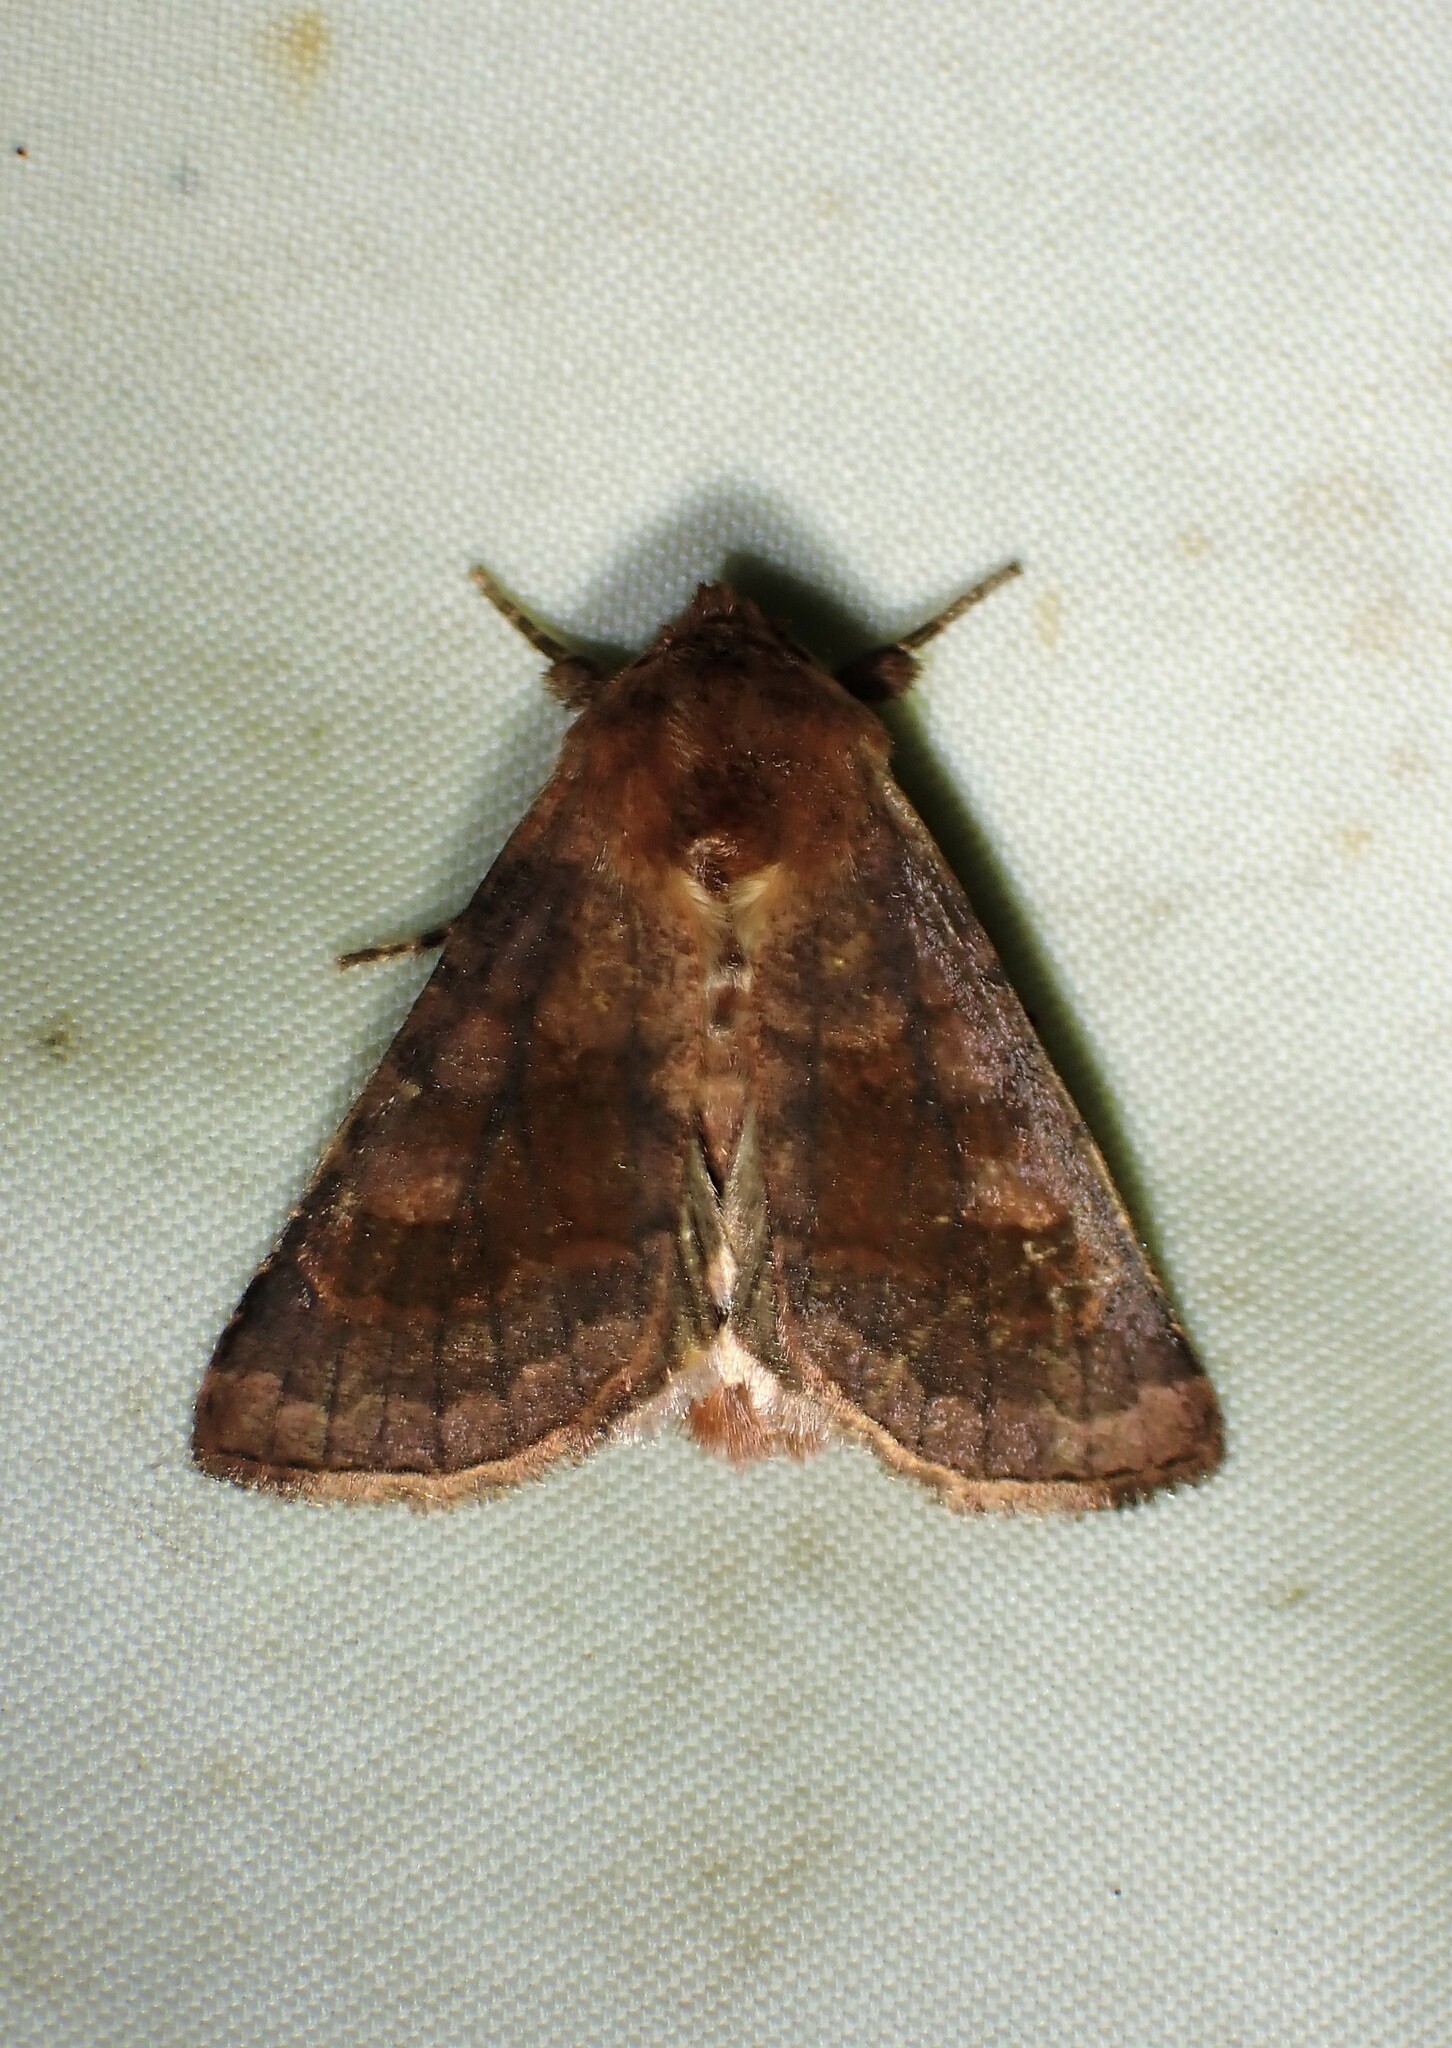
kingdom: Animalia
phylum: Arthropoda
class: Insecta
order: Lepidoptera
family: Noctuidae
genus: Nephelodes
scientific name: Nephelodes minians
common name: Bronzed cutworm
